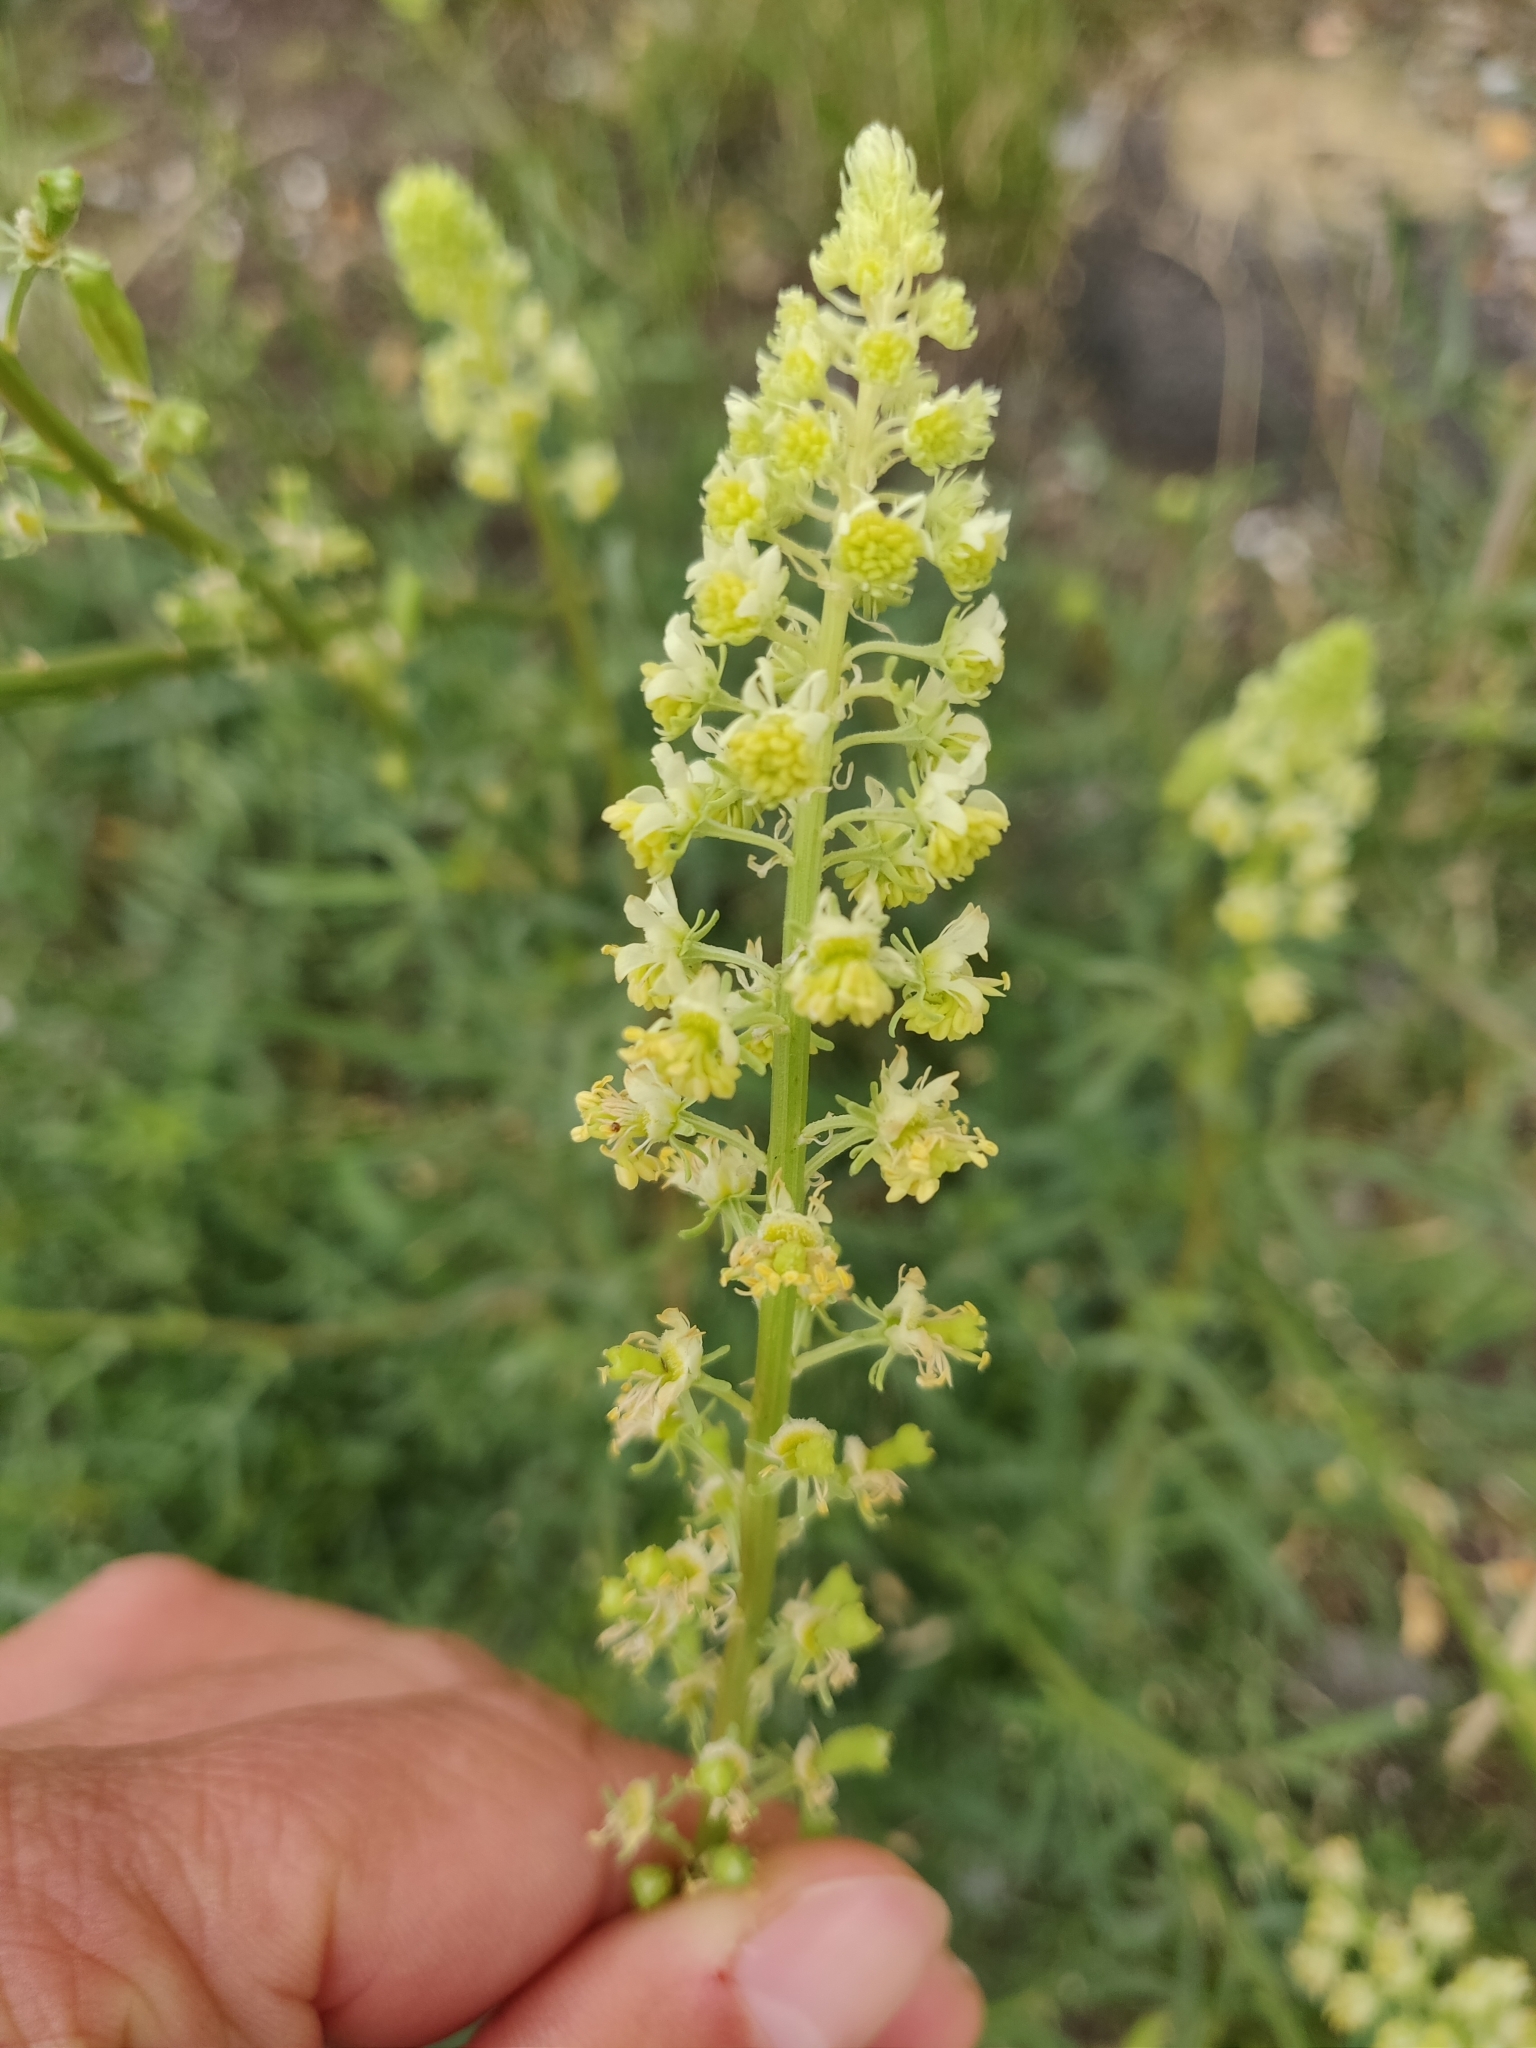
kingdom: Plantae
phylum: Tracheophyta
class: Magnoliopsida
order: Brassicales
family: Resedaceae
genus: Reseda
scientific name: Reseda lutea
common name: Wild mignonette
